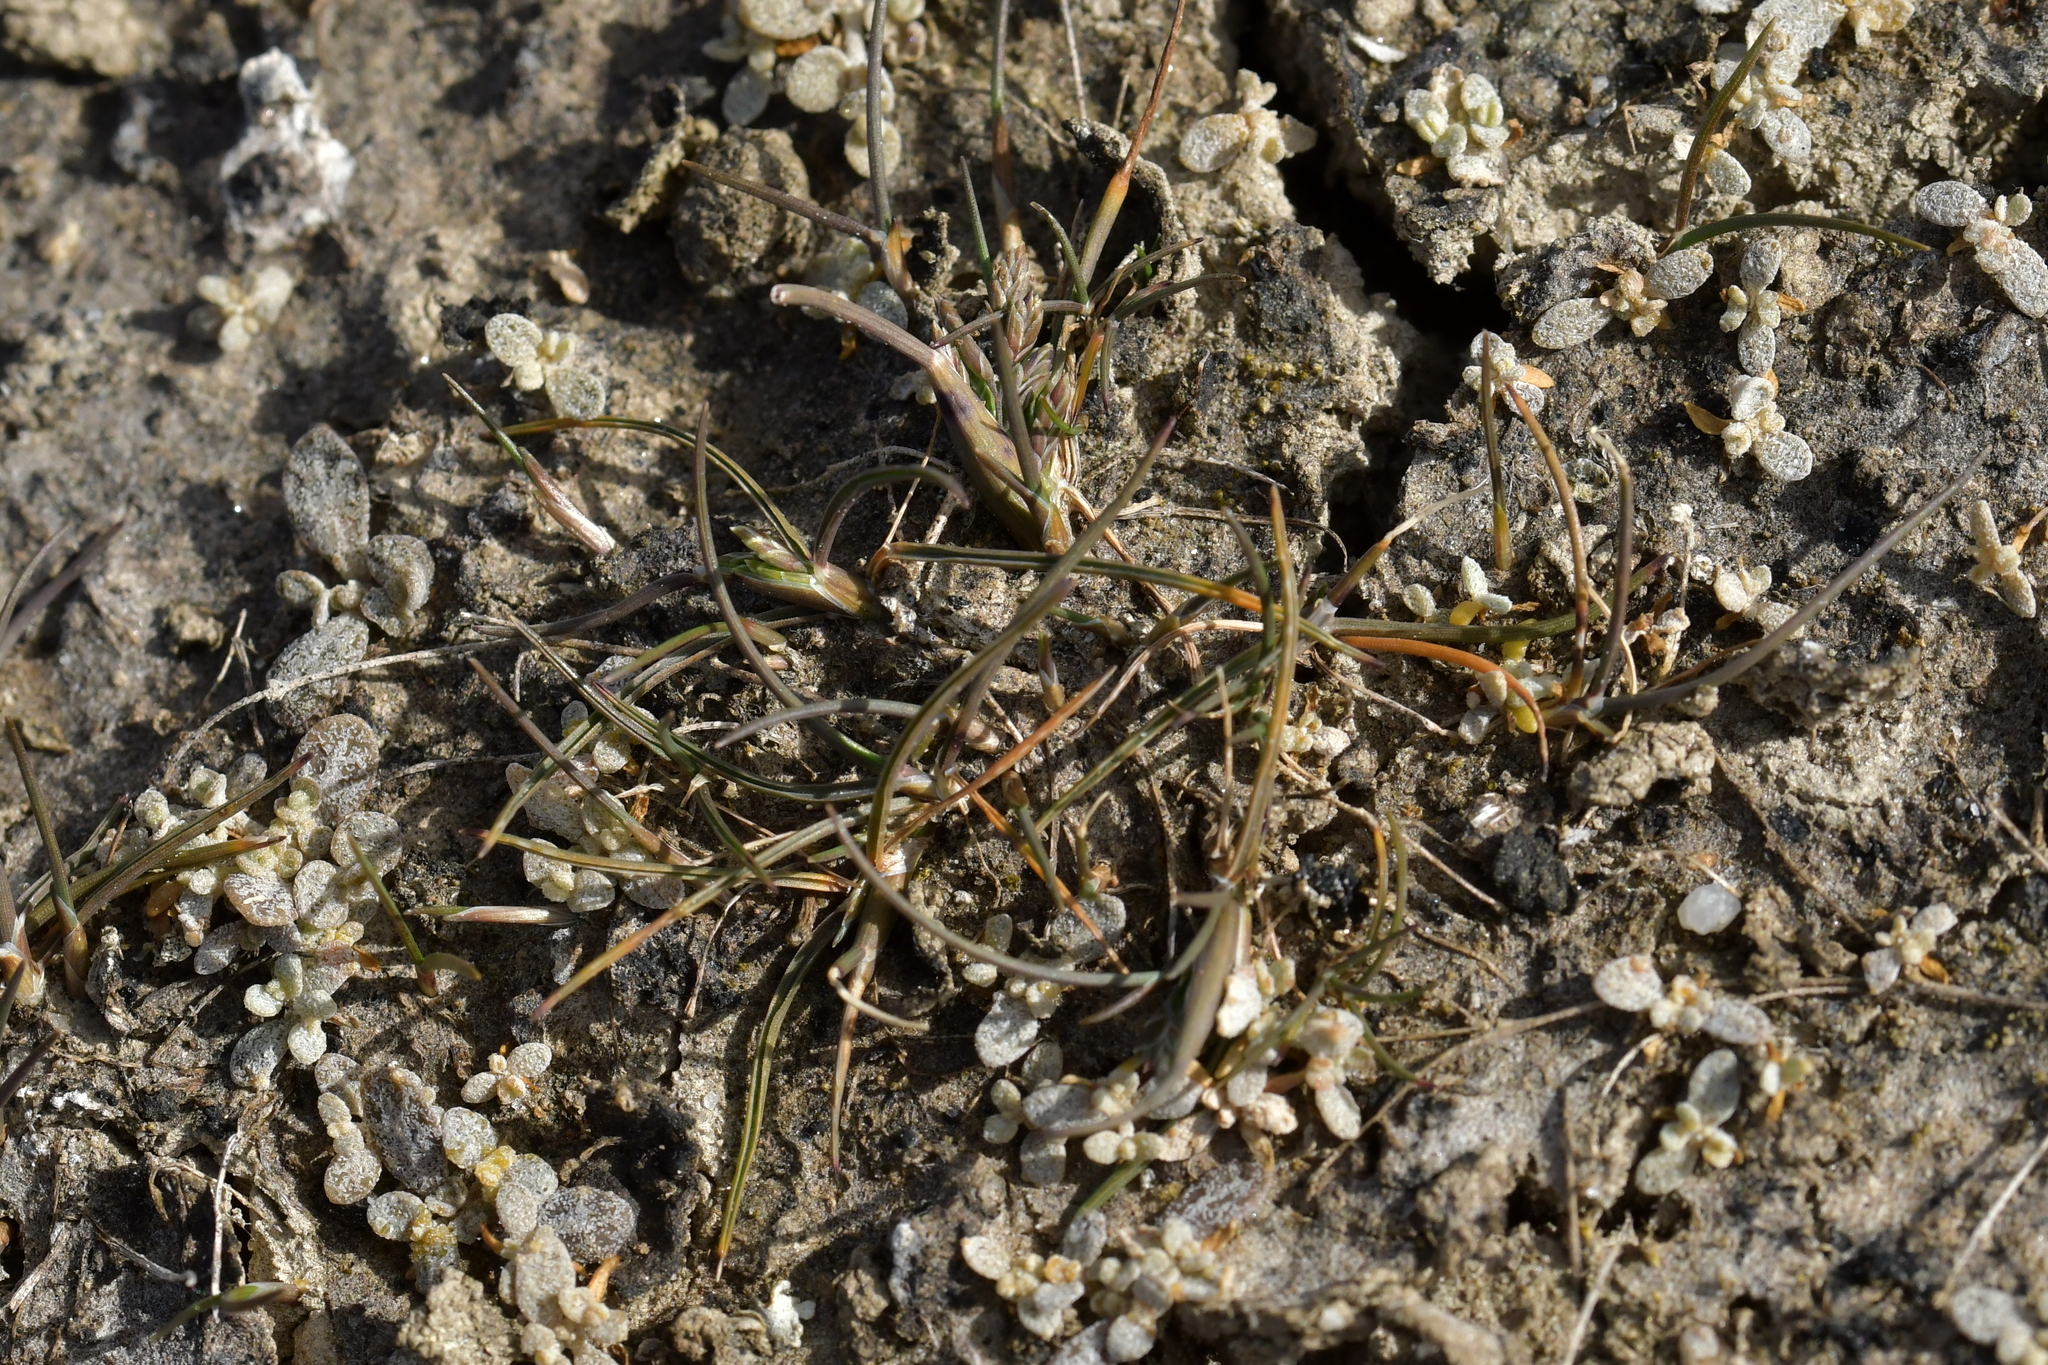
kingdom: Plantae
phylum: Tracheophyta
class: Liliopsida
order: Poales
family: Poaceae
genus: Puccinellia
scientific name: Puccinellia raroflorens
